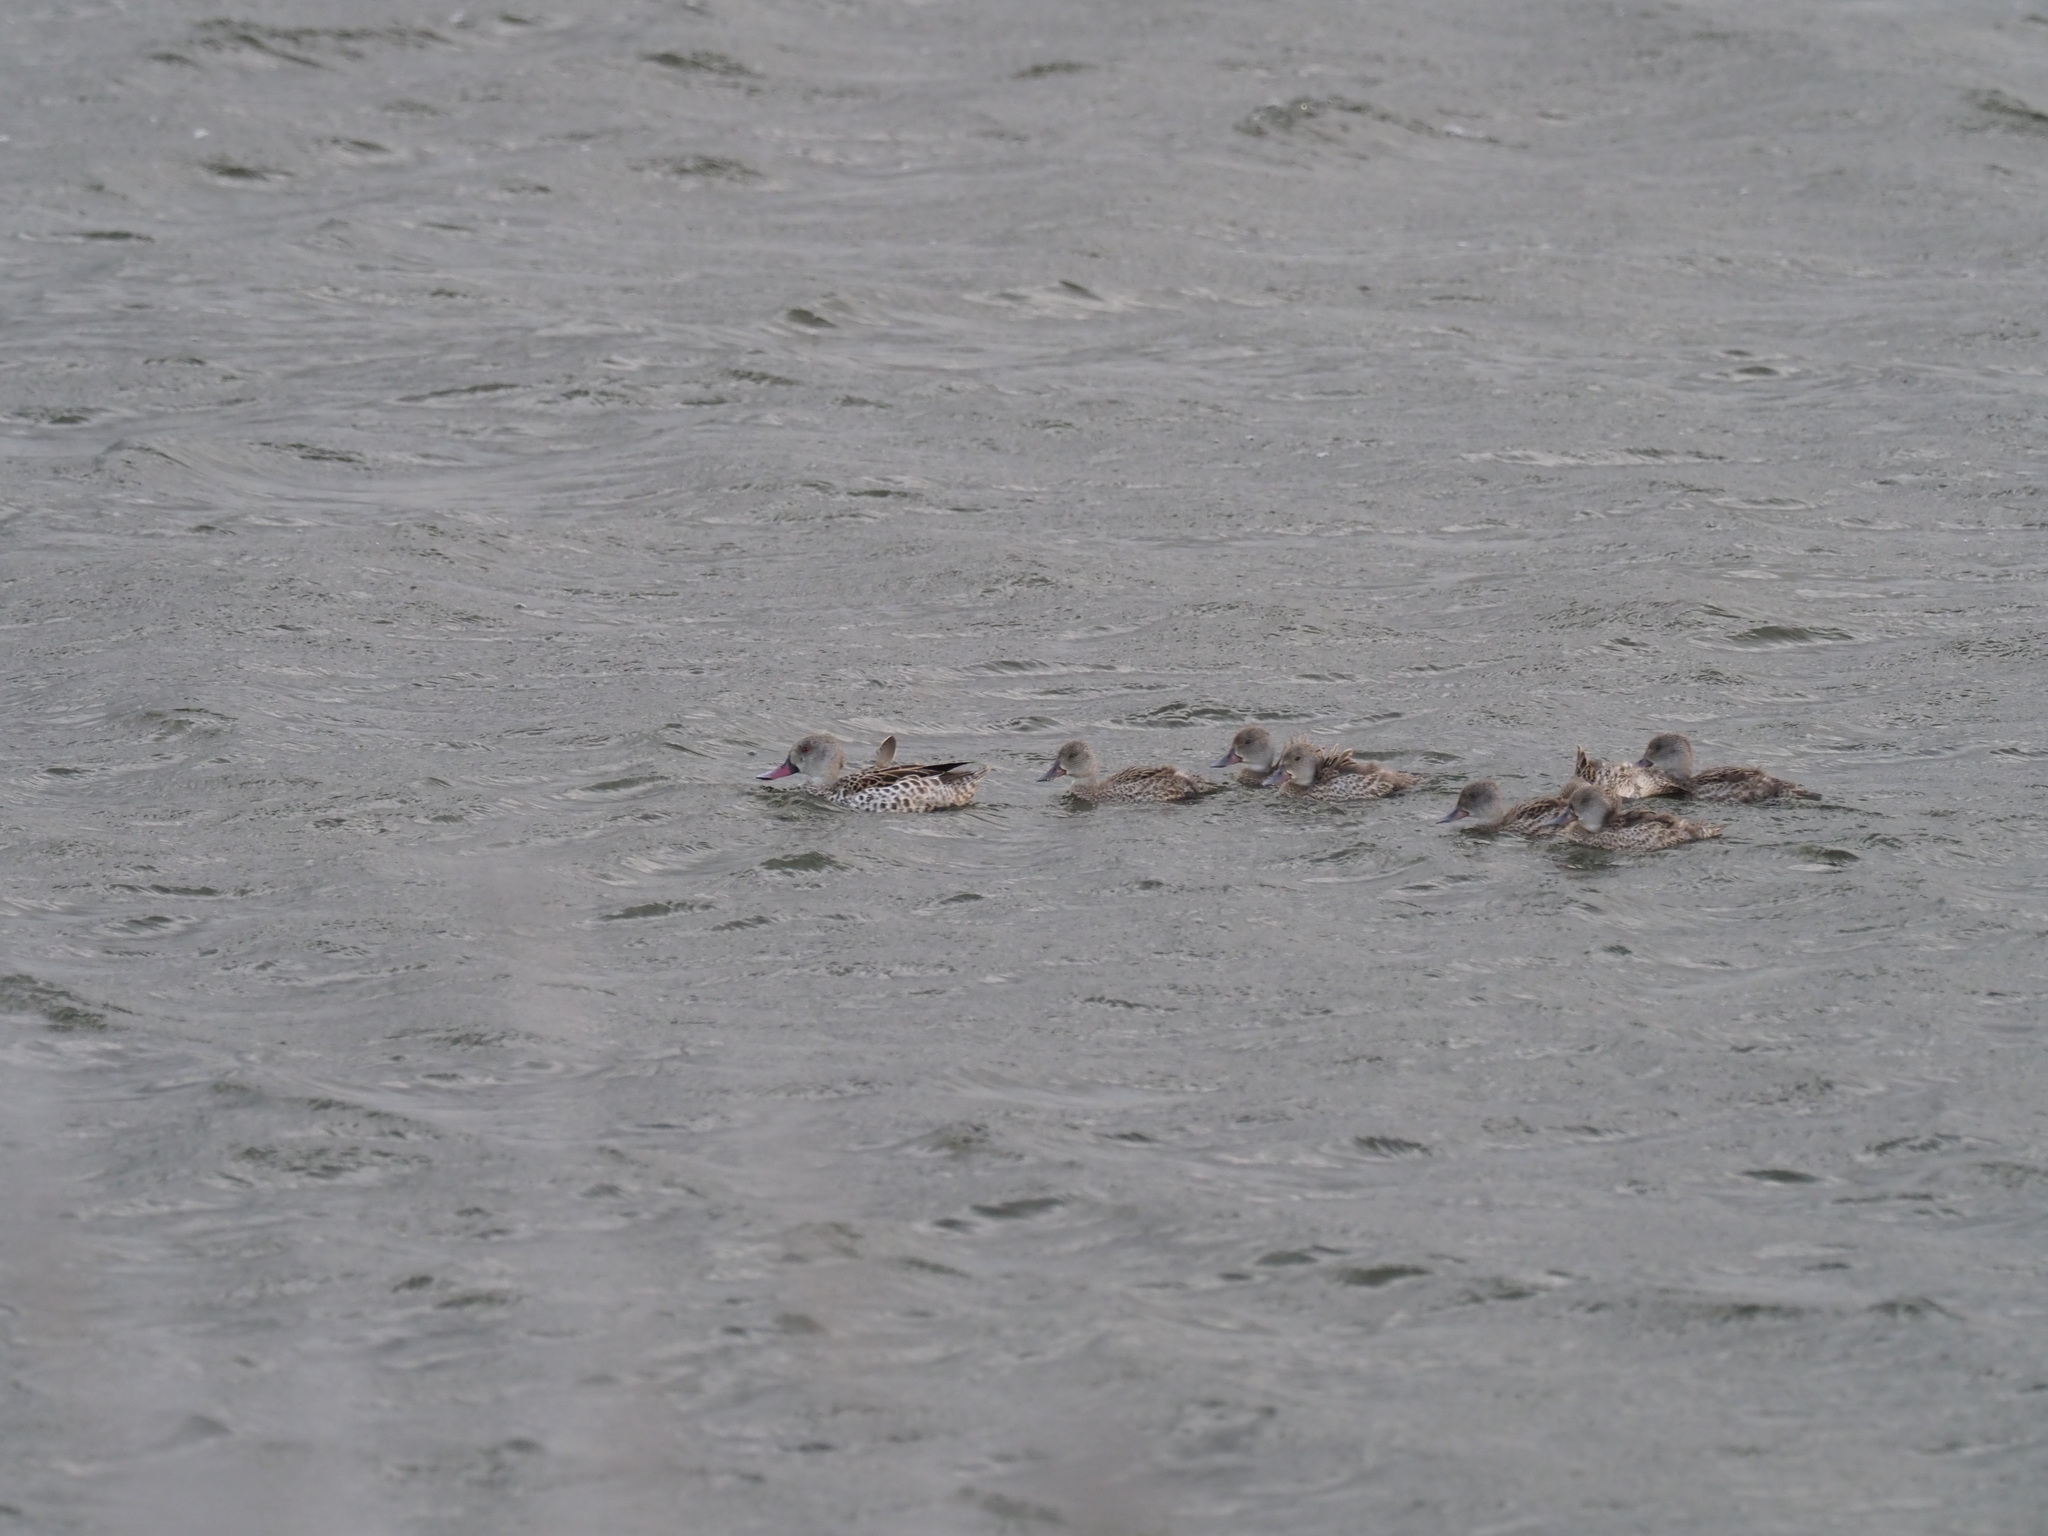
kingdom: Animalia
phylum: Chordata
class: Aves
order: Anseriformes
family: Anatidae
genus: Anas
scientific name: Anas capensis
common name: Cape teal
